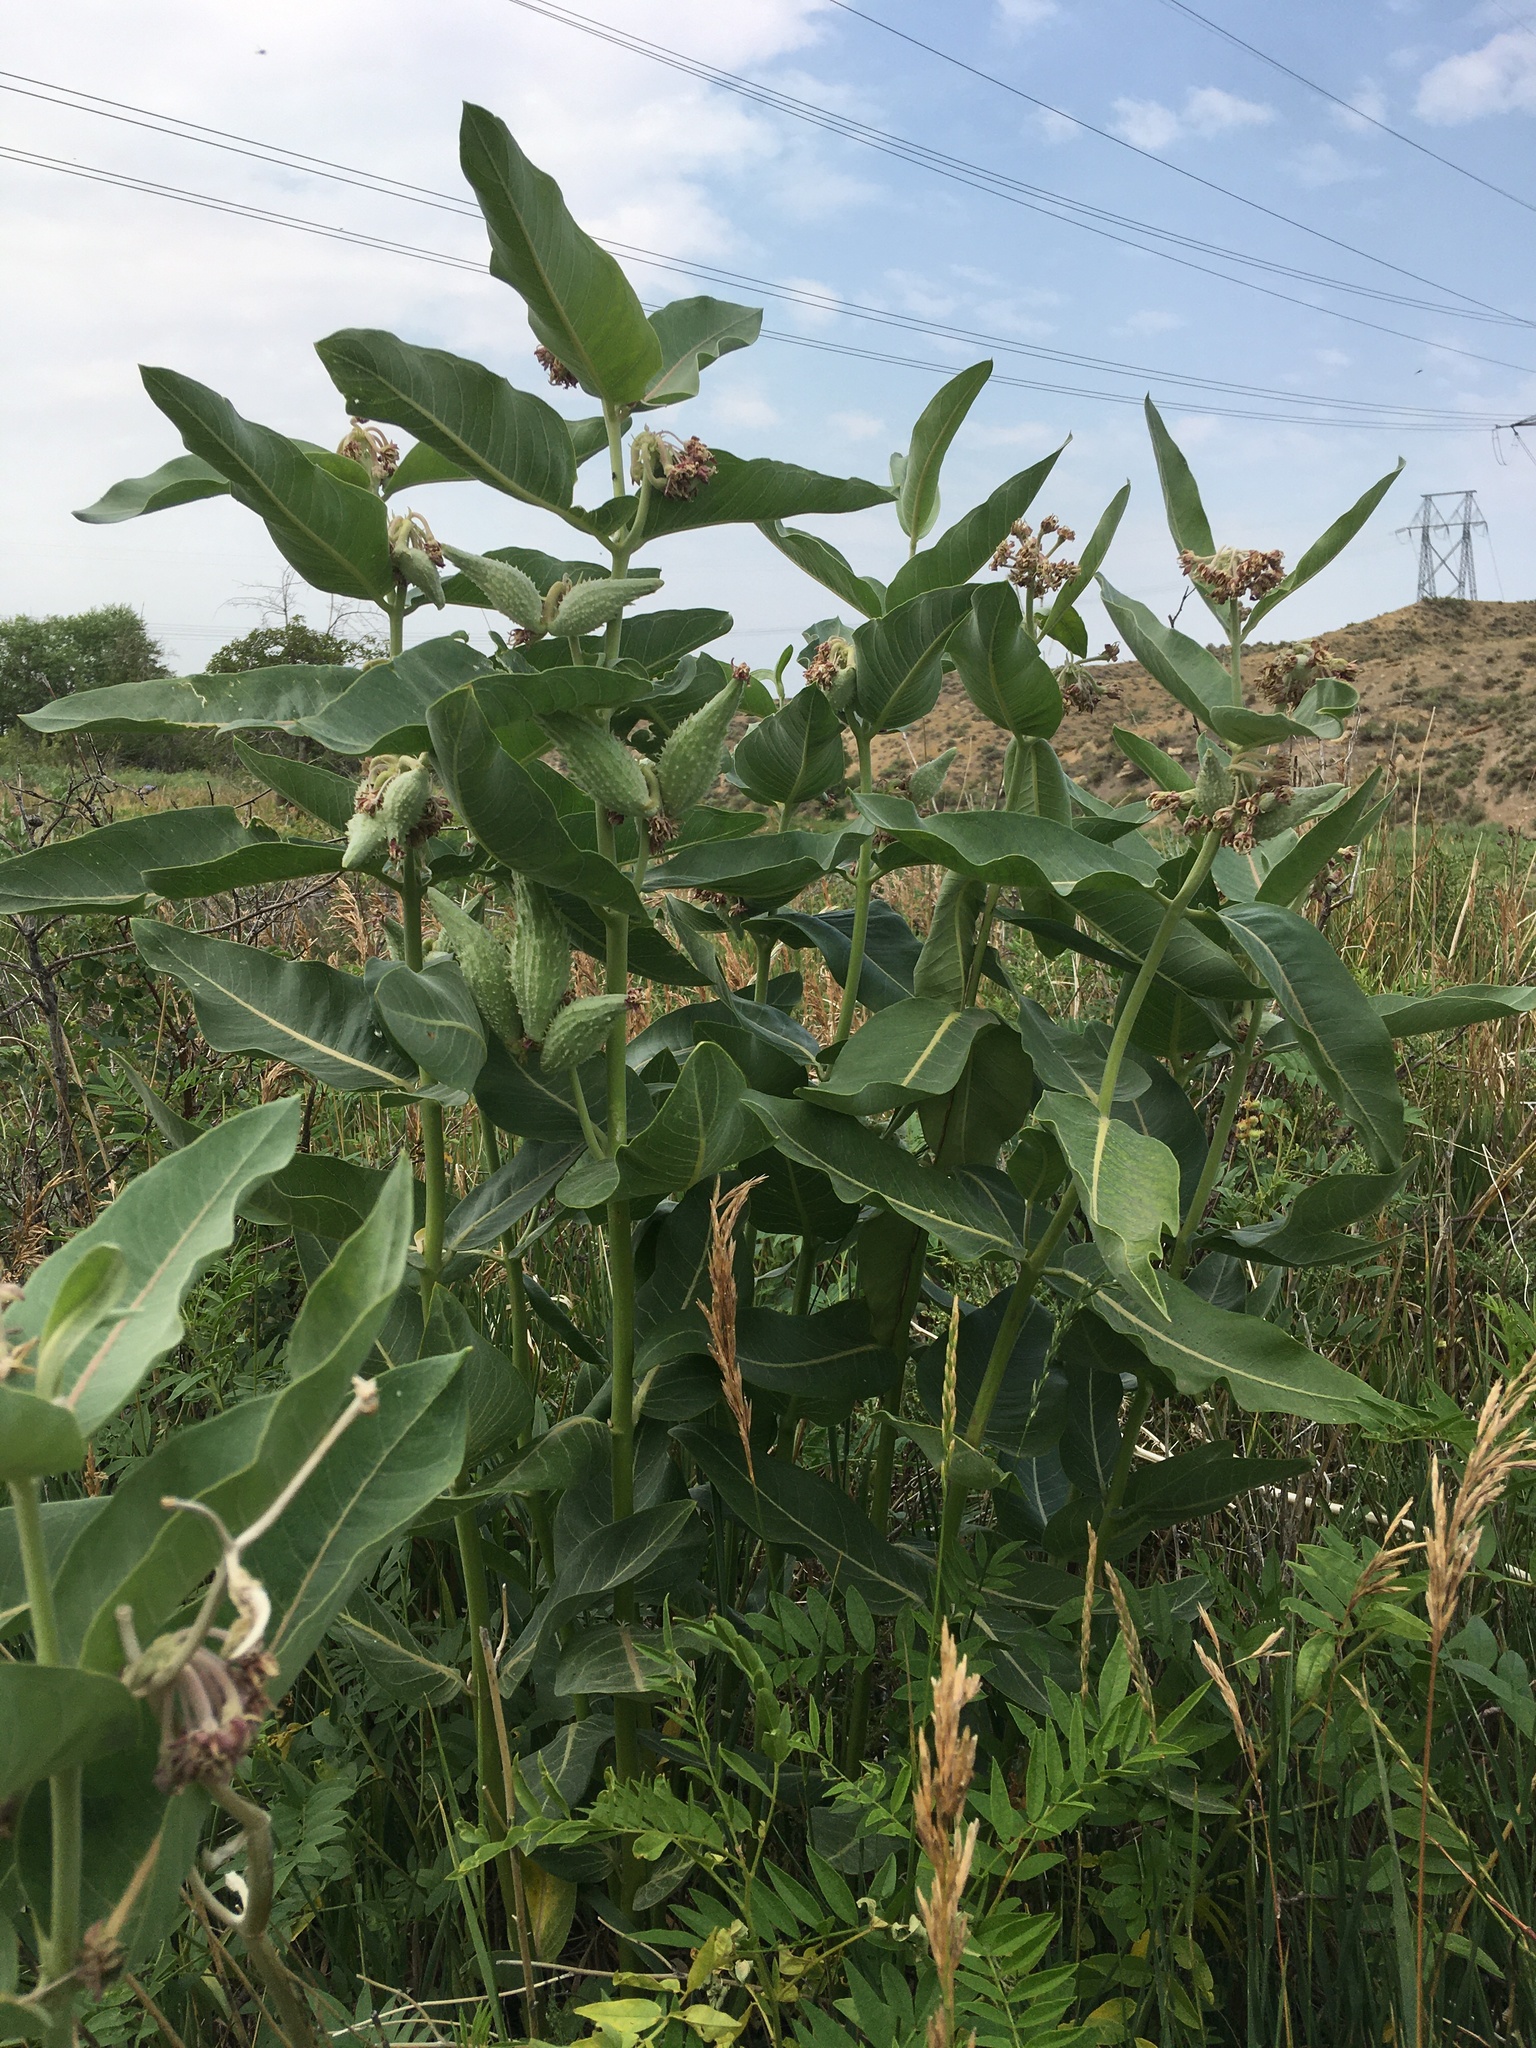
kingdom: Plantae
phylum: Tracheophyta
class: Magnoliopsida
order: Gentianales
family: Apocynaceae
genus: Asclepias
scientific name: Asclepias speciosa
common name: Showy milkweed
